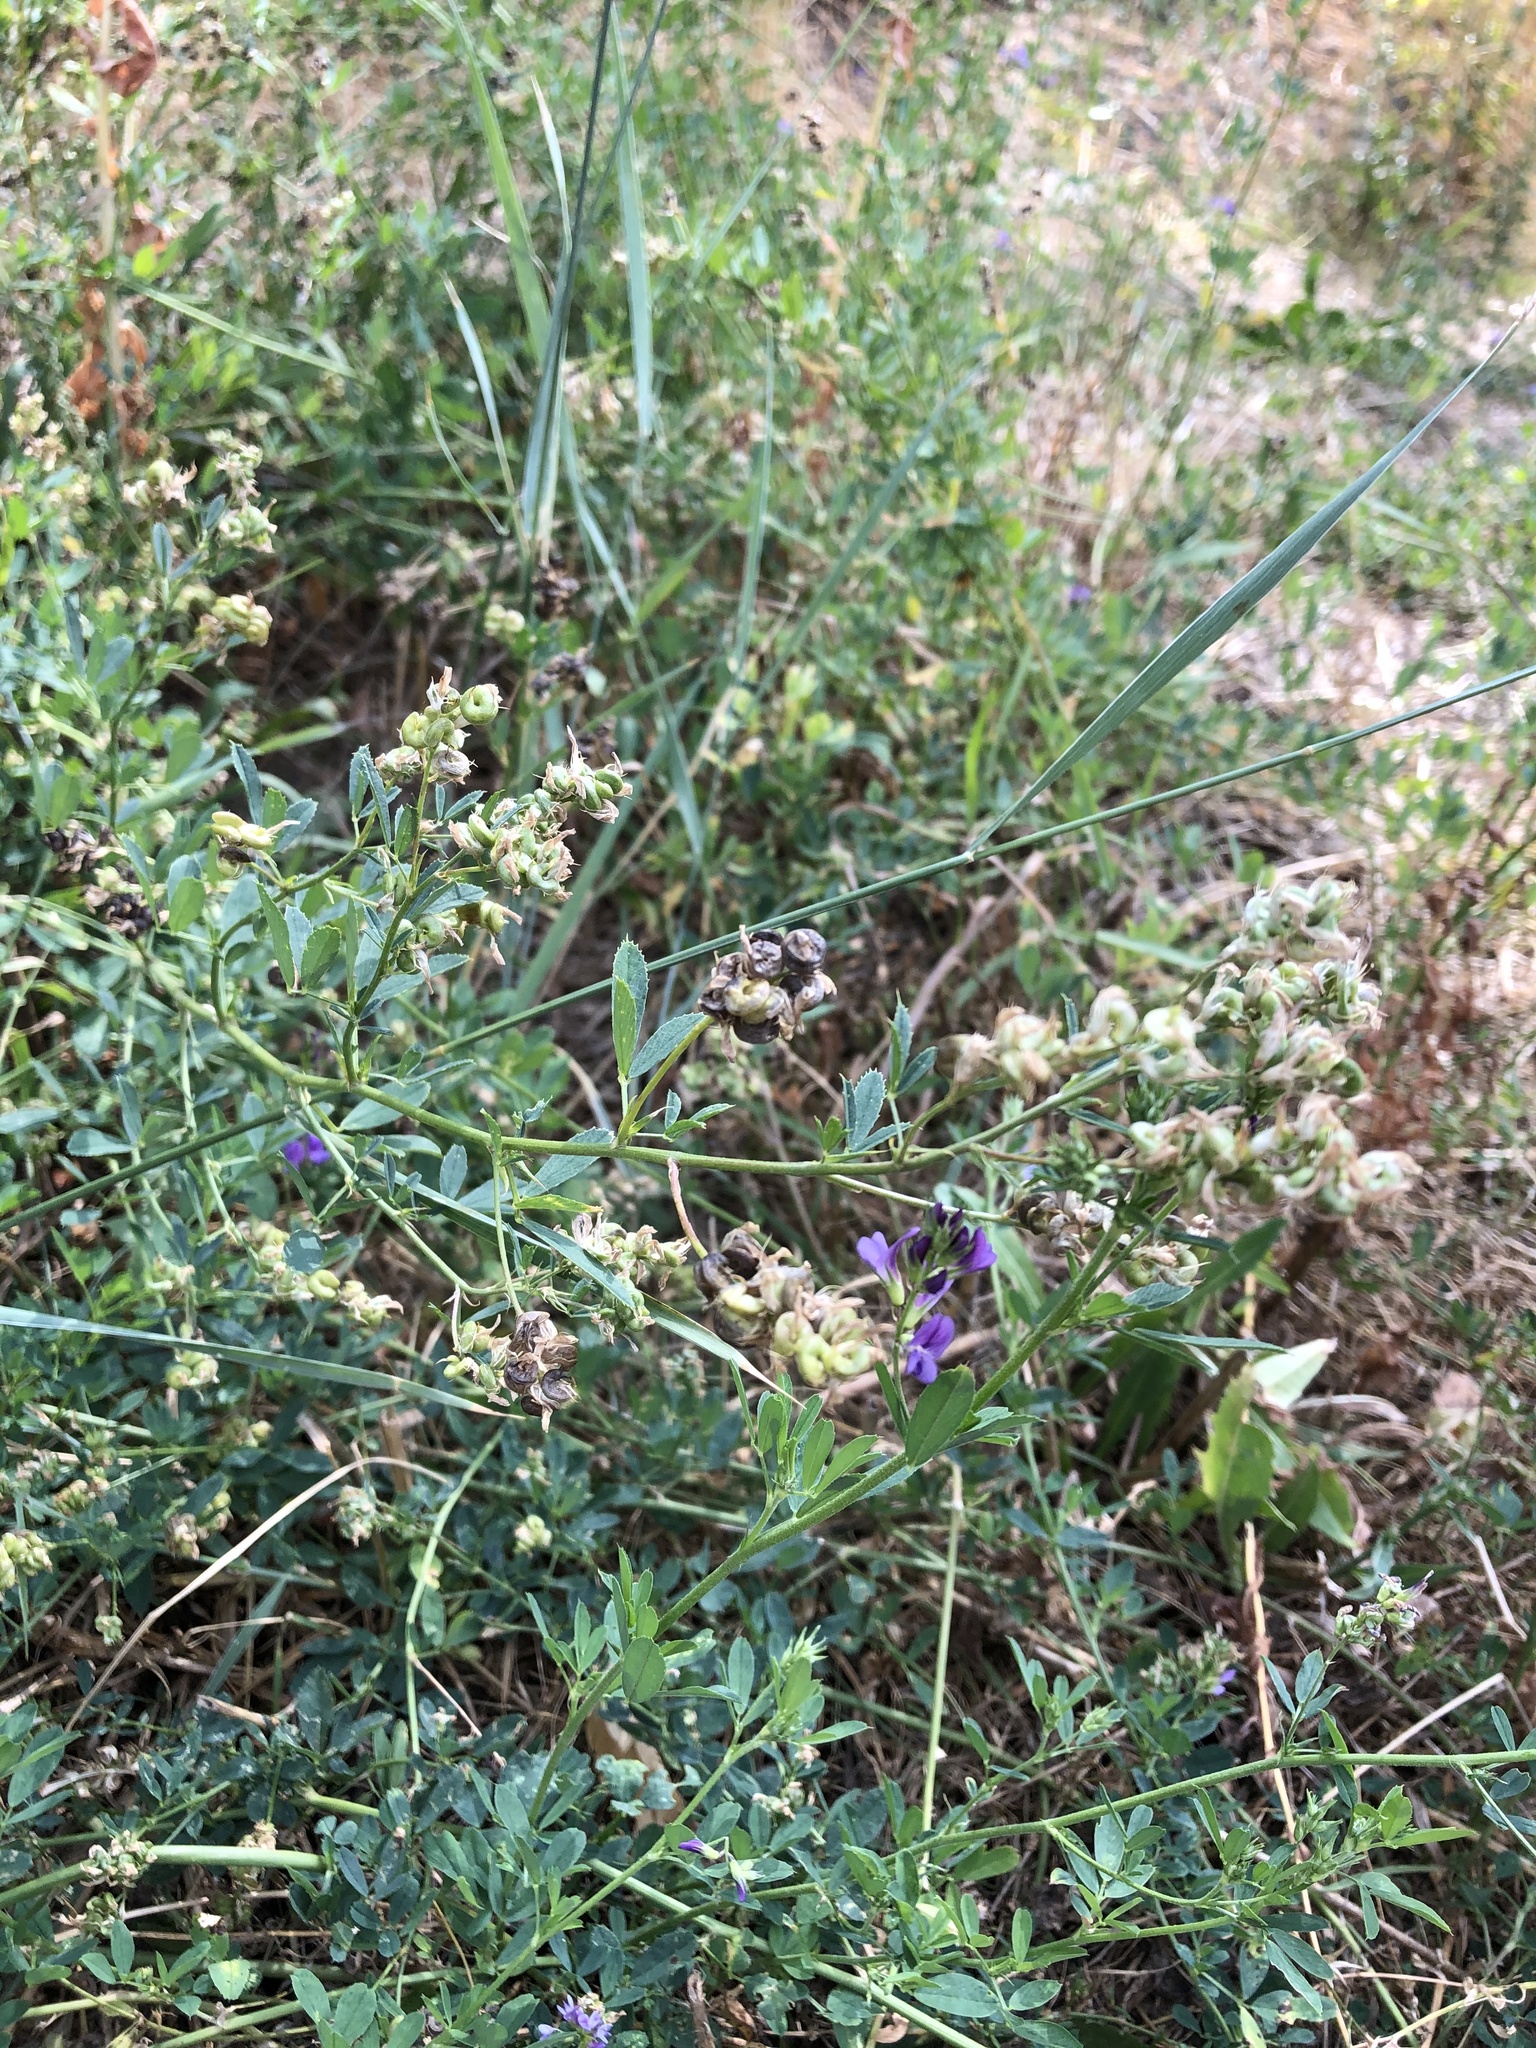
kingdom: Plantae
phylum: Tracheophyta
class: Magnoliopsida
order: Fabales
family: Fabaceae
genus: Medicago
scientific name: Medicago sativa
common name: Alfalfa
